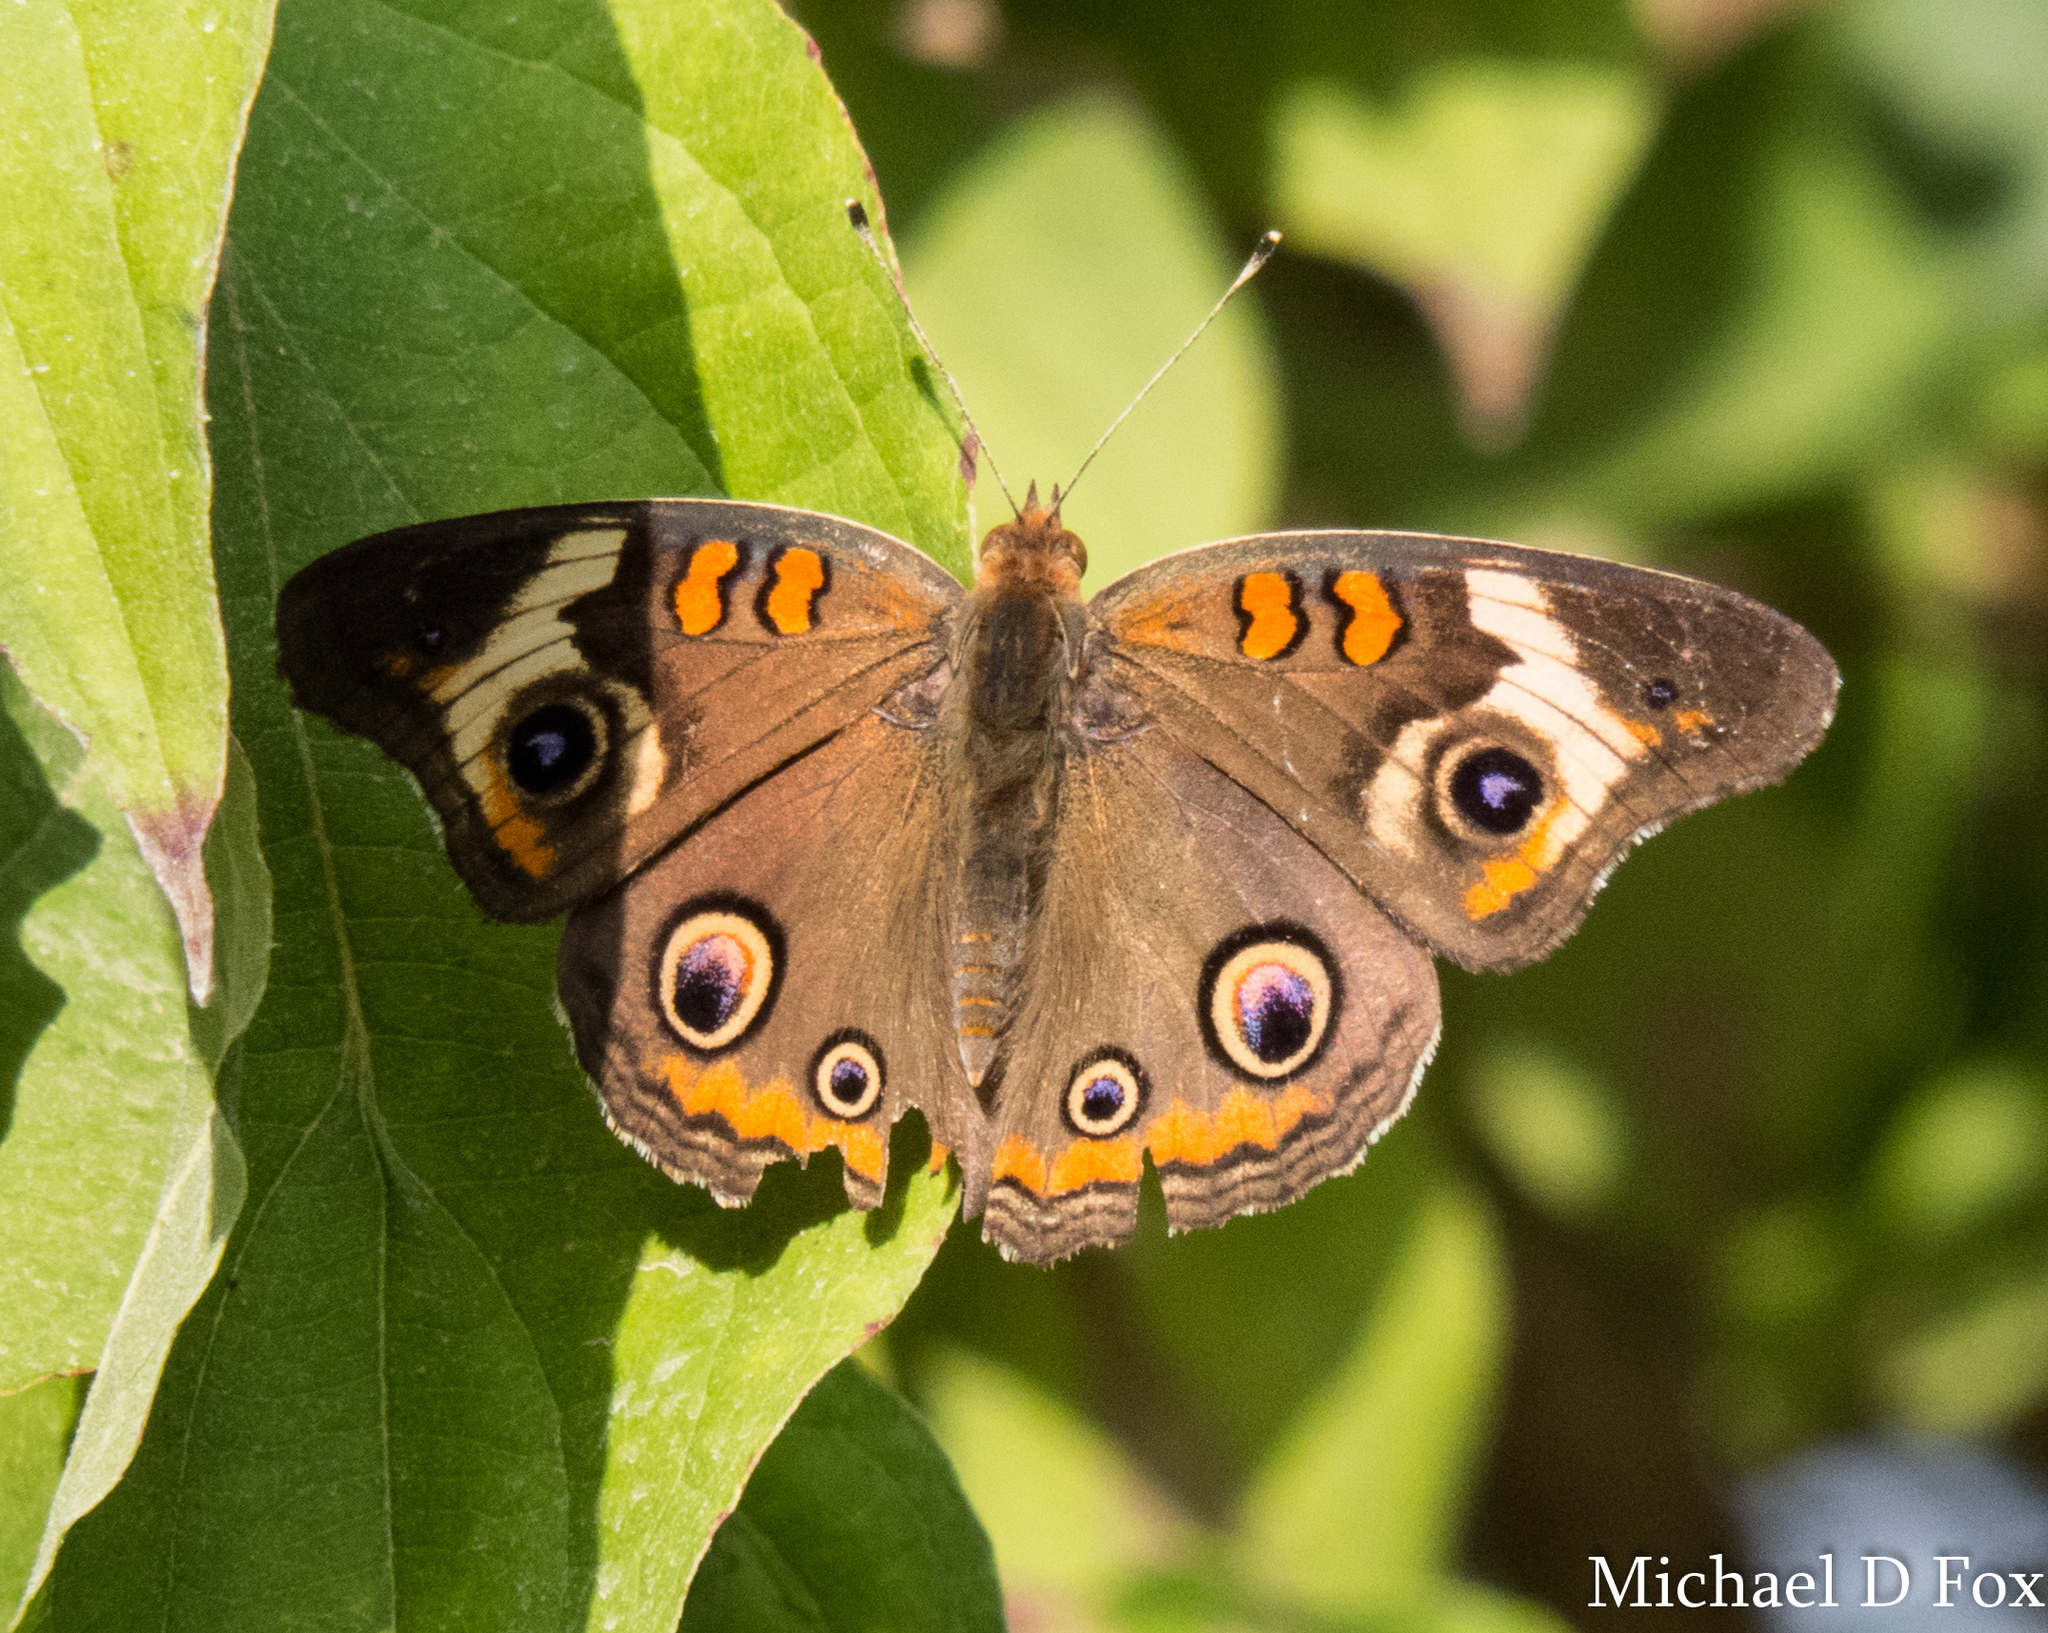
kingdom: Animalia
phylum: Arthropoda
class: Insecta
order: Lepidoptera
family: Nymphalidae
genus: Junonia
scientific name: Junonia coenia
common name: Common buckeye
